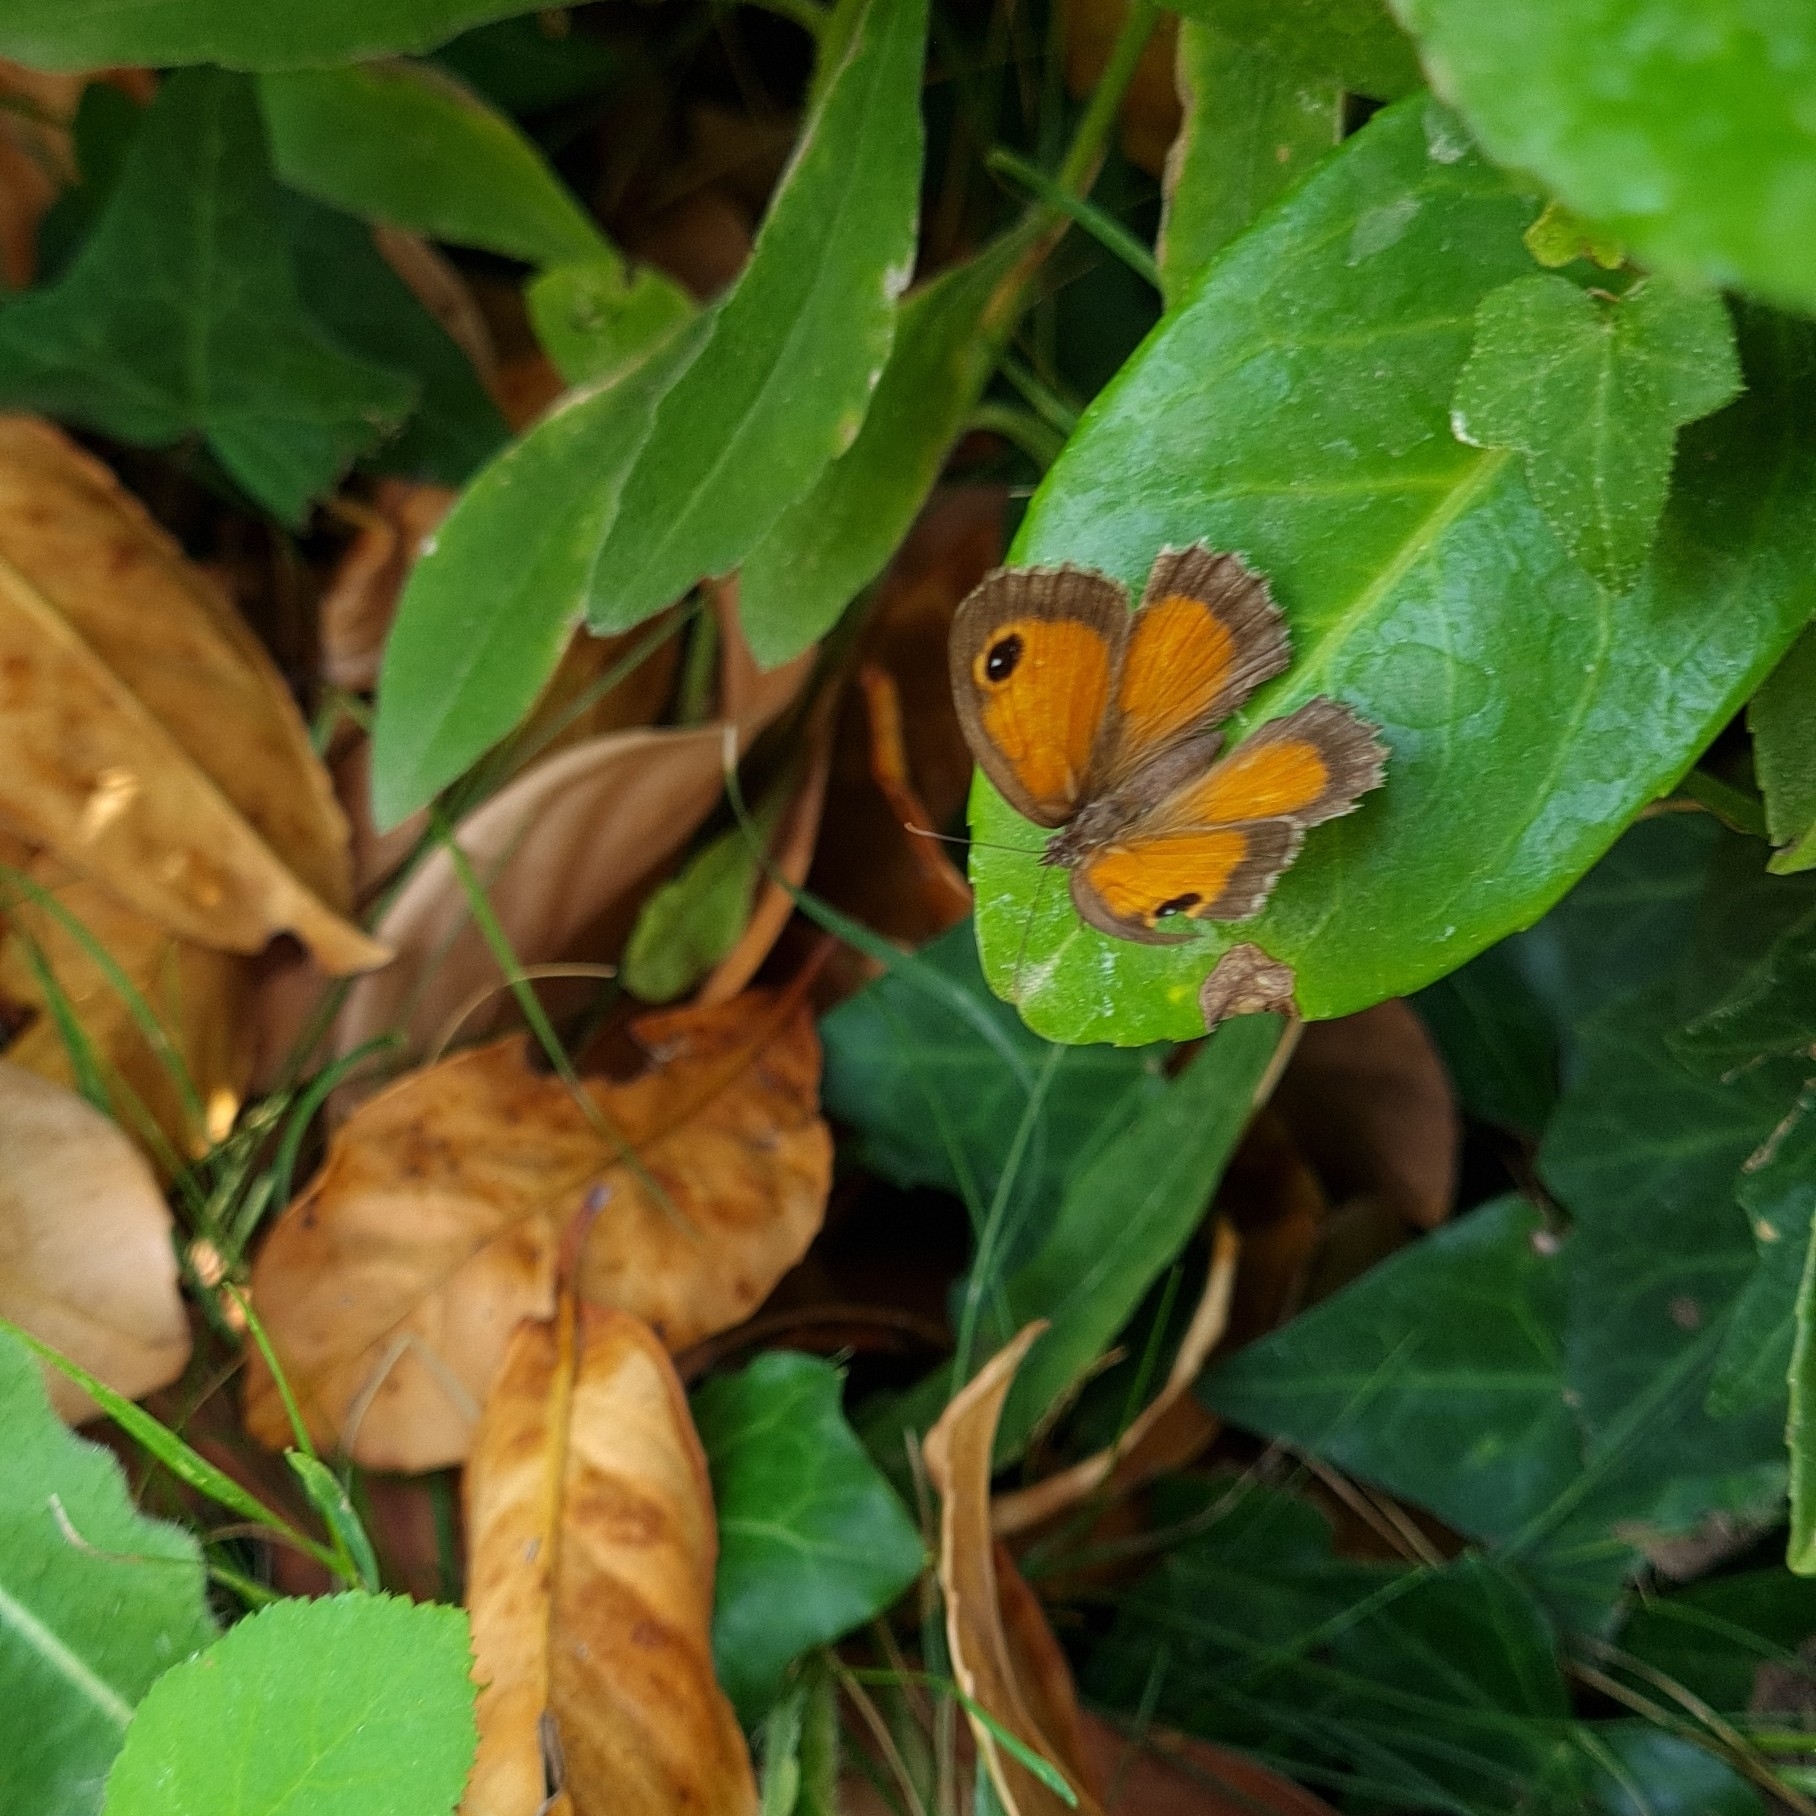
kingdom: Animalia
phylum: Arthropoda
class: Insecta
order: Lepidoptera
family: Nymphalidae
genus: Pyronia
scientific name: Pyronia cecilia
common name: Southern gatekeeper
